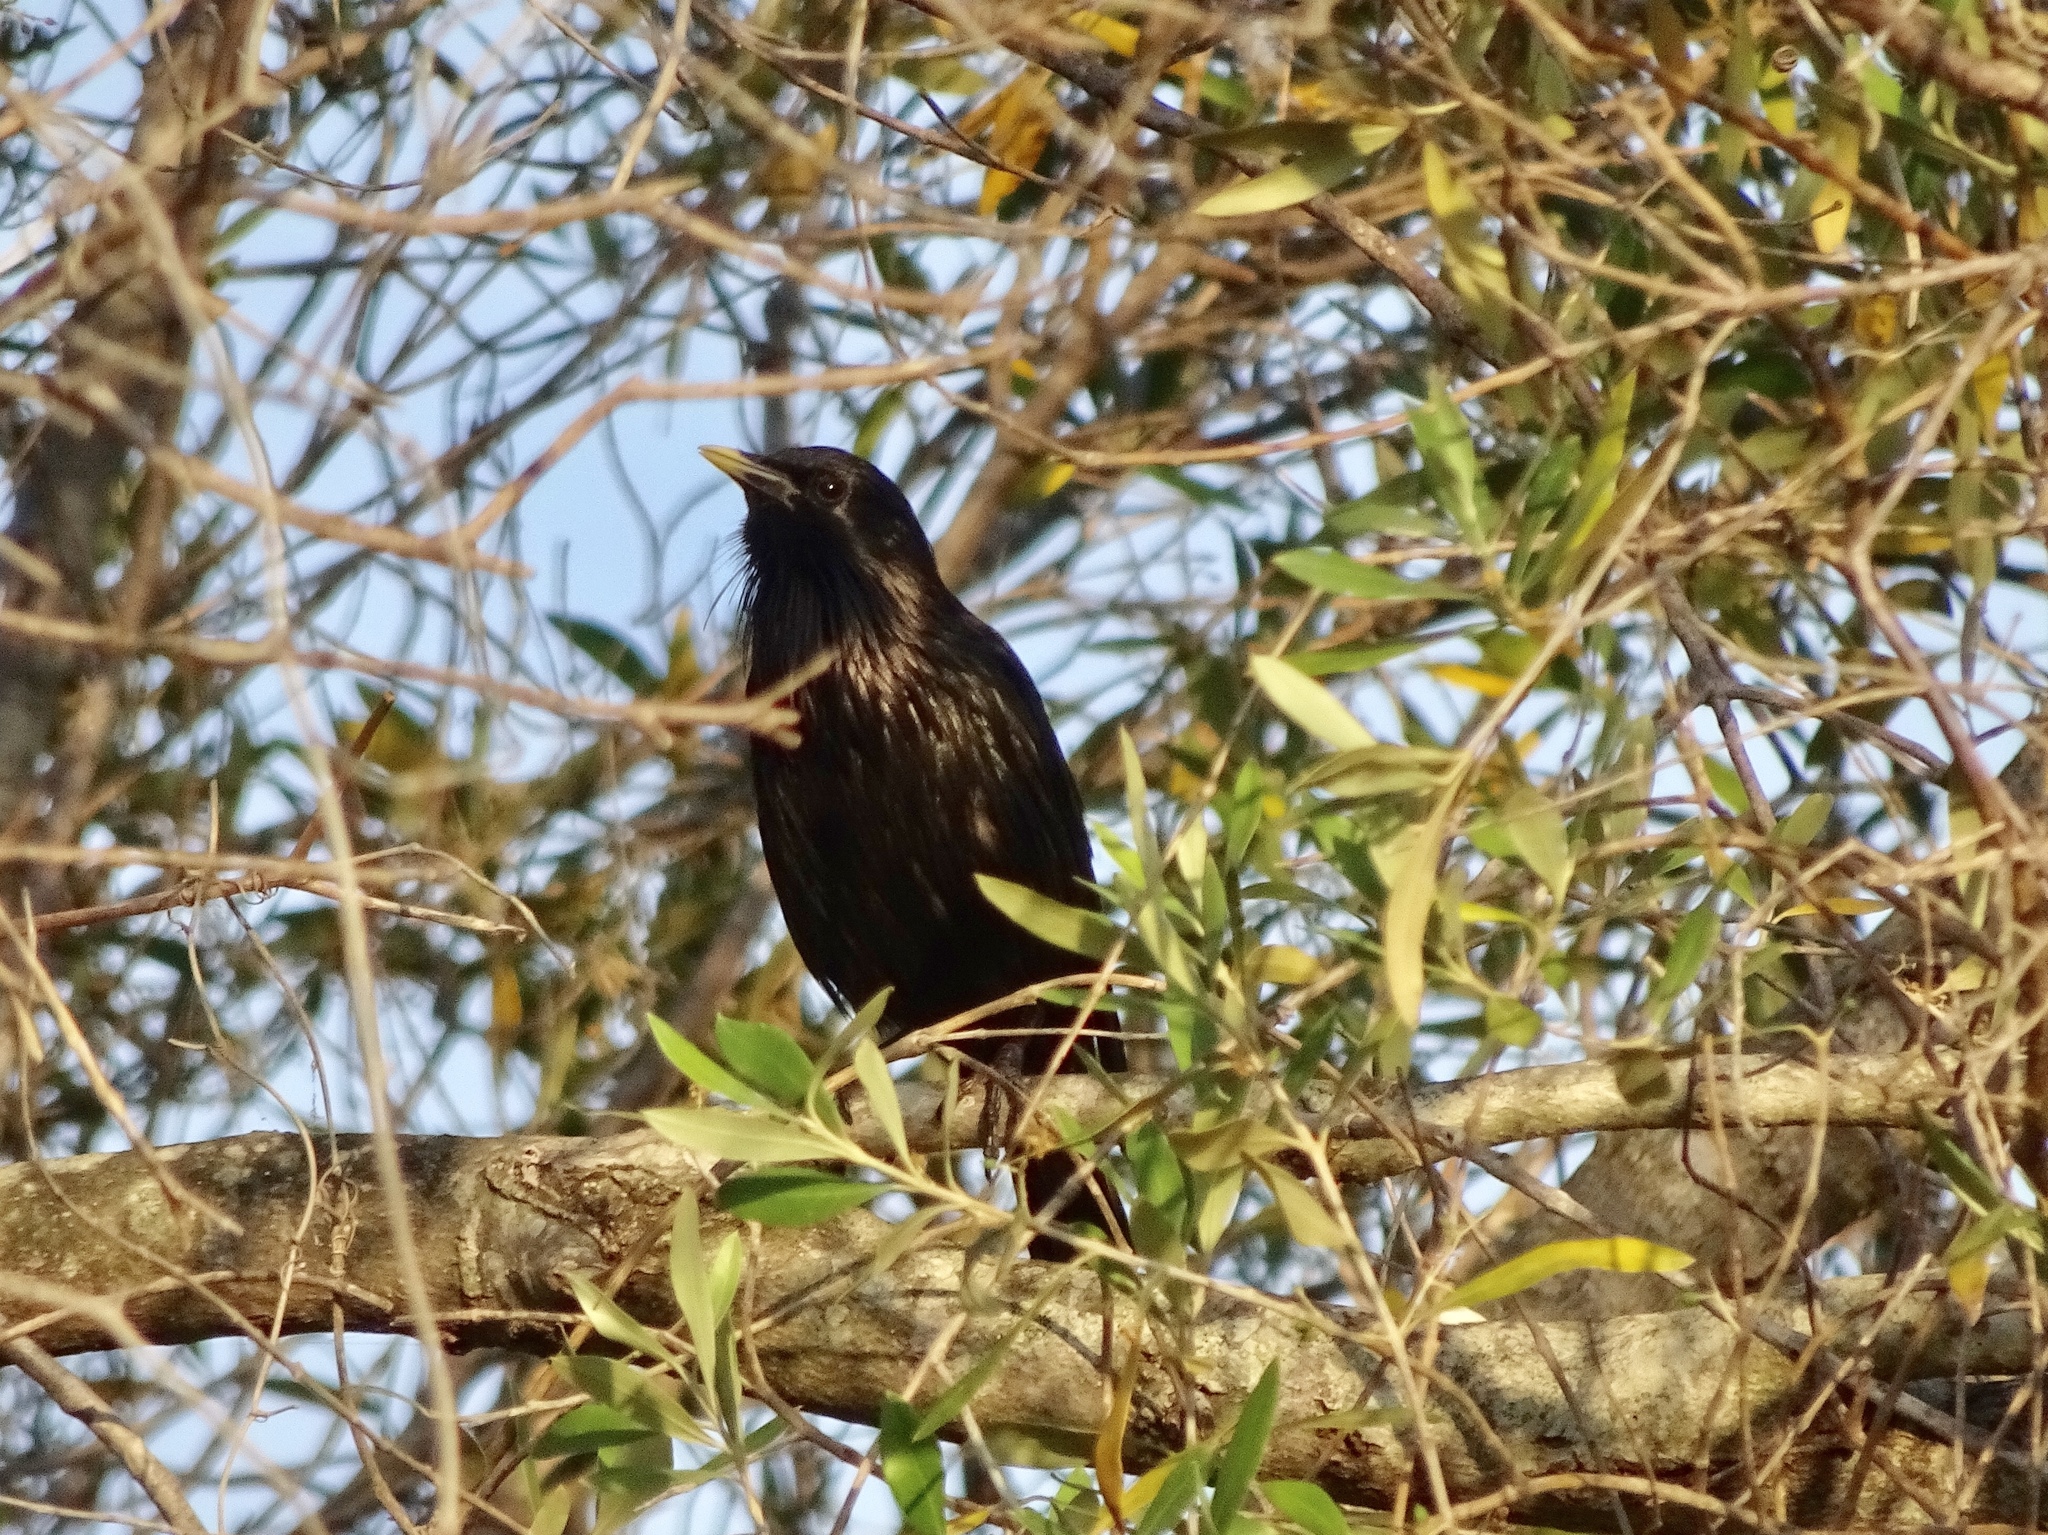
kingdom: Animalia
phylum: Chordata
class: Aves
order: Passeriformes
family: Sturnidae
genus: Sturnus
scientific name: Sturnus unicolor
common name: Spotless starling
